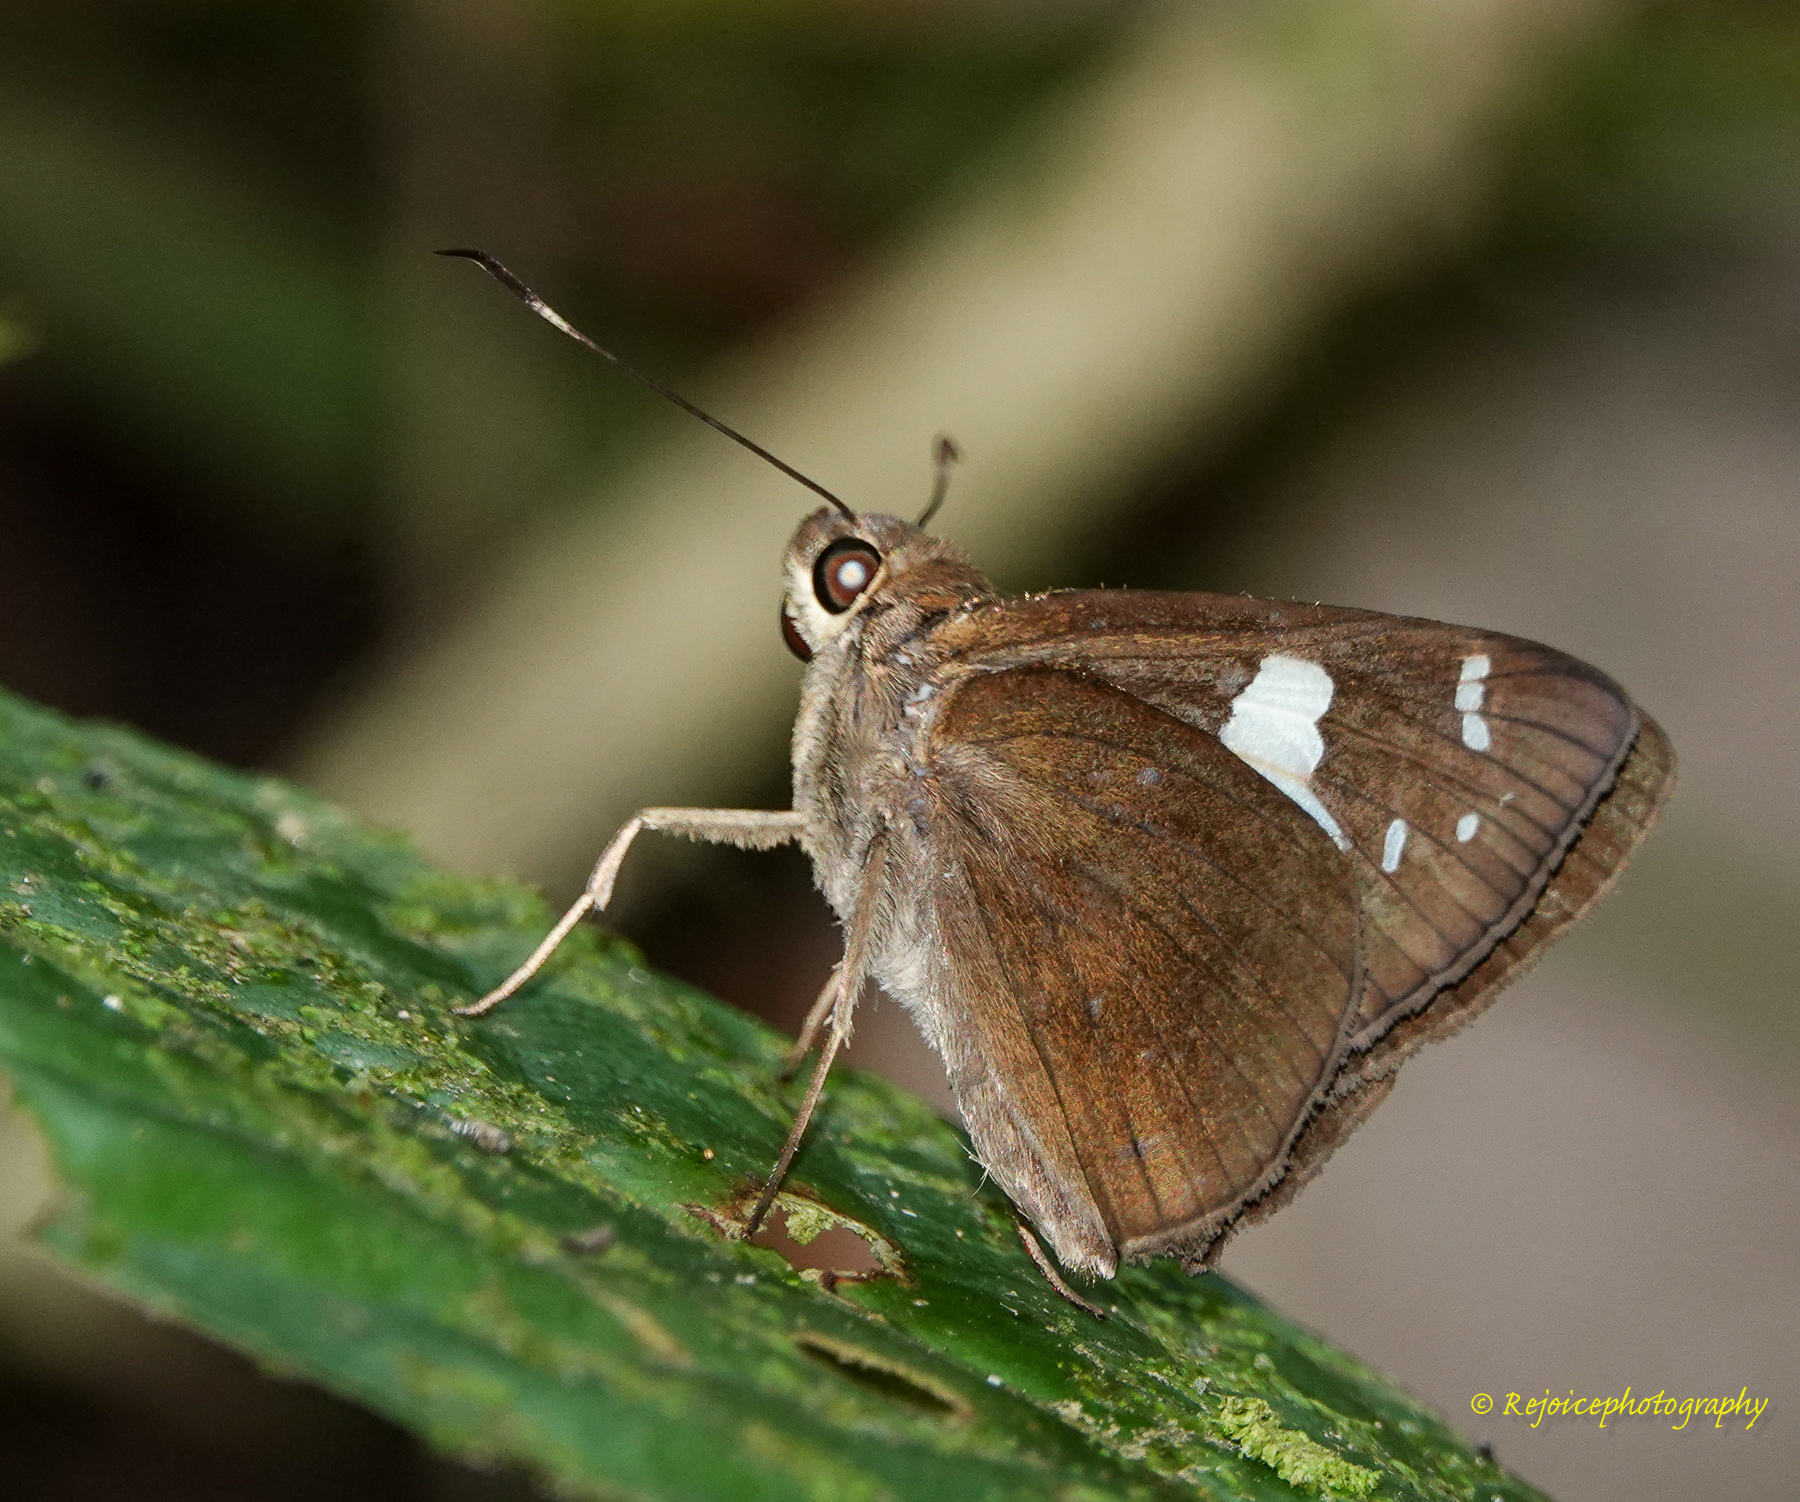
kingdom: Animalia
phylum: Arthropoda
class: Insecta
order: Lepidoptera
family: Hesperiidae
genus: Notocrypta
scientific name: Notocrypta curvifascia
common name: Restricted demon
